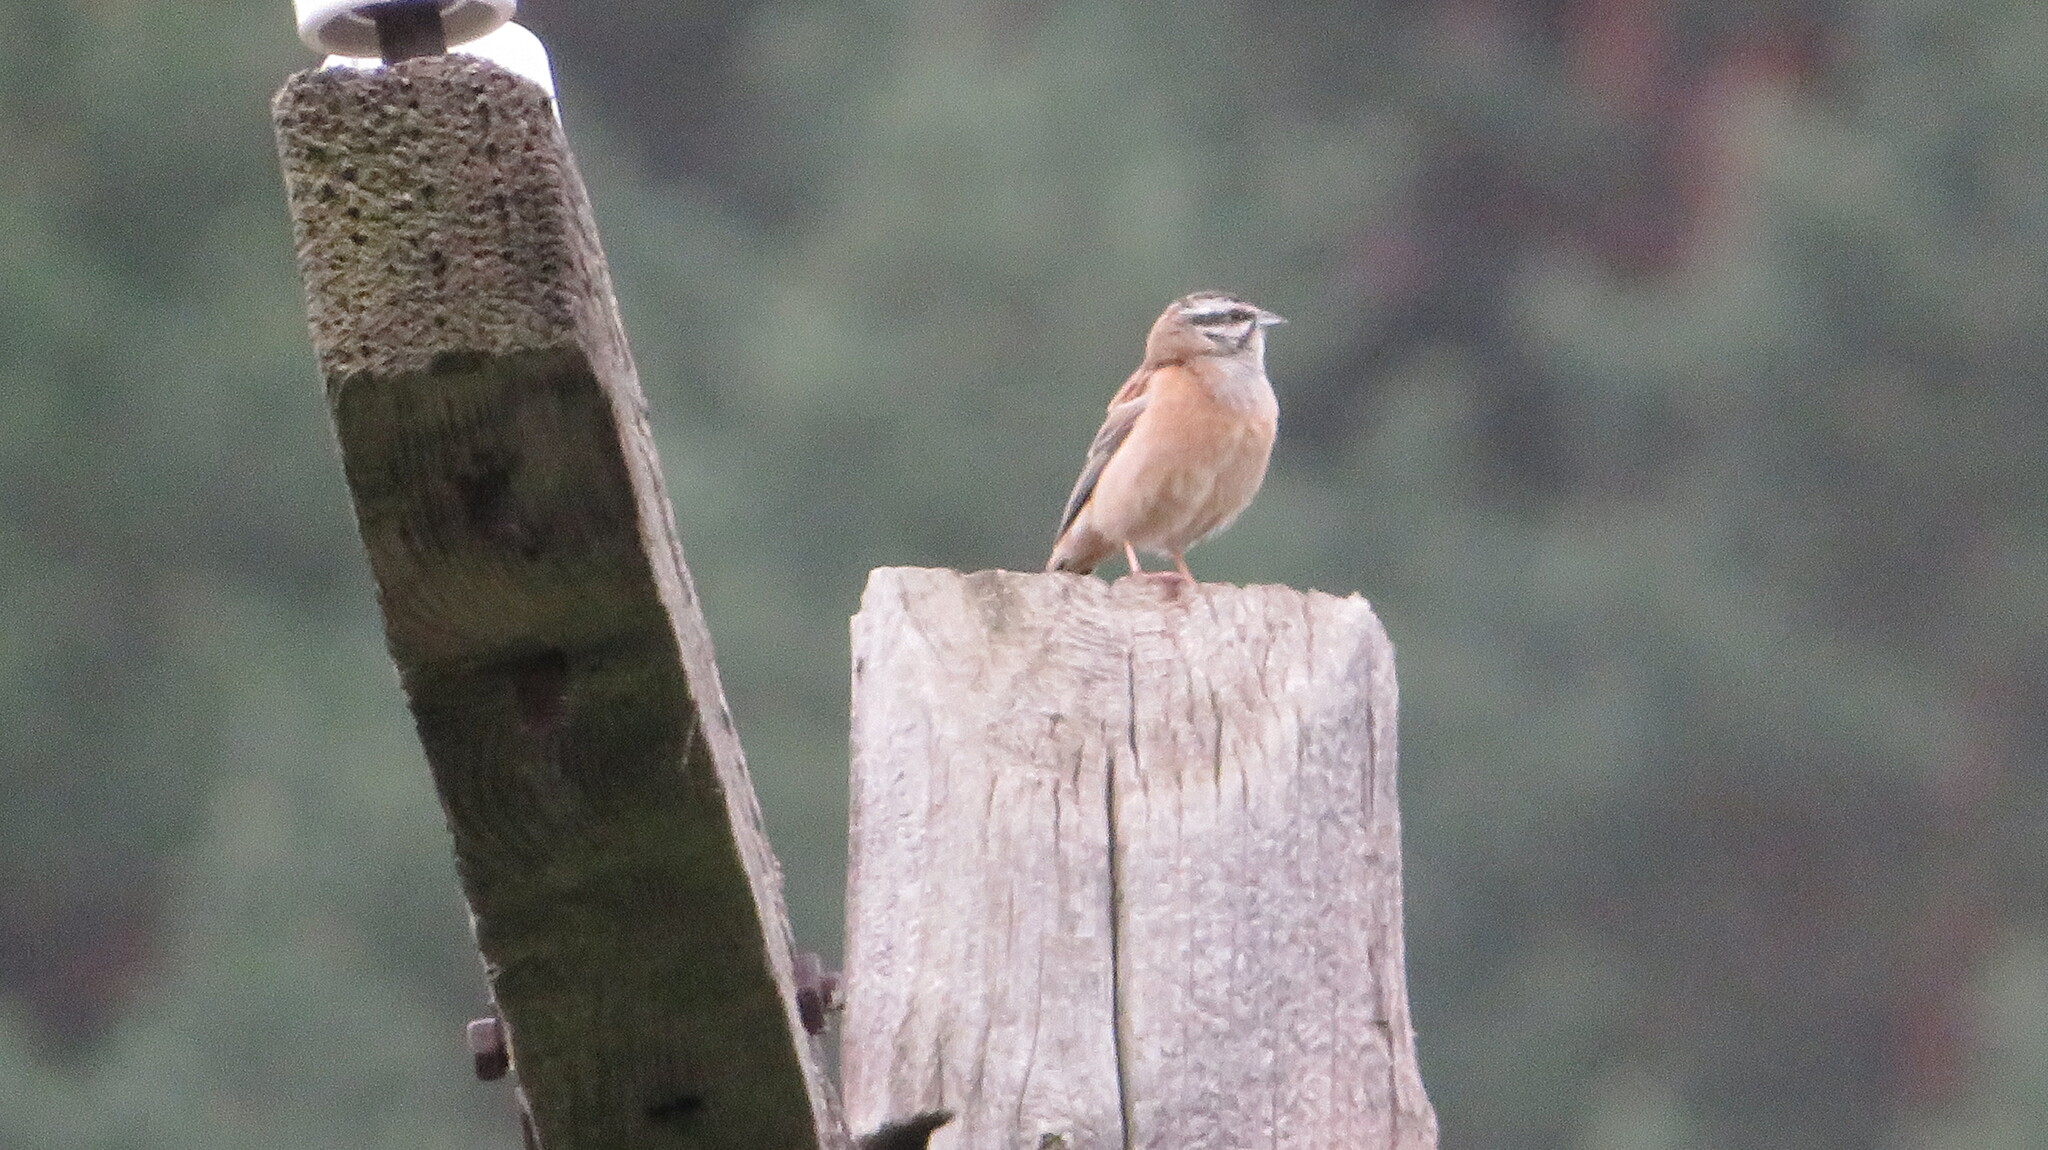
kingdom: Animalia
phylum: Chordata
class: Aves
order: Passeriformes
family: Emberizidae
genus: Emberiza
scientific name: Emberiza cia
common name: Rock bunting
